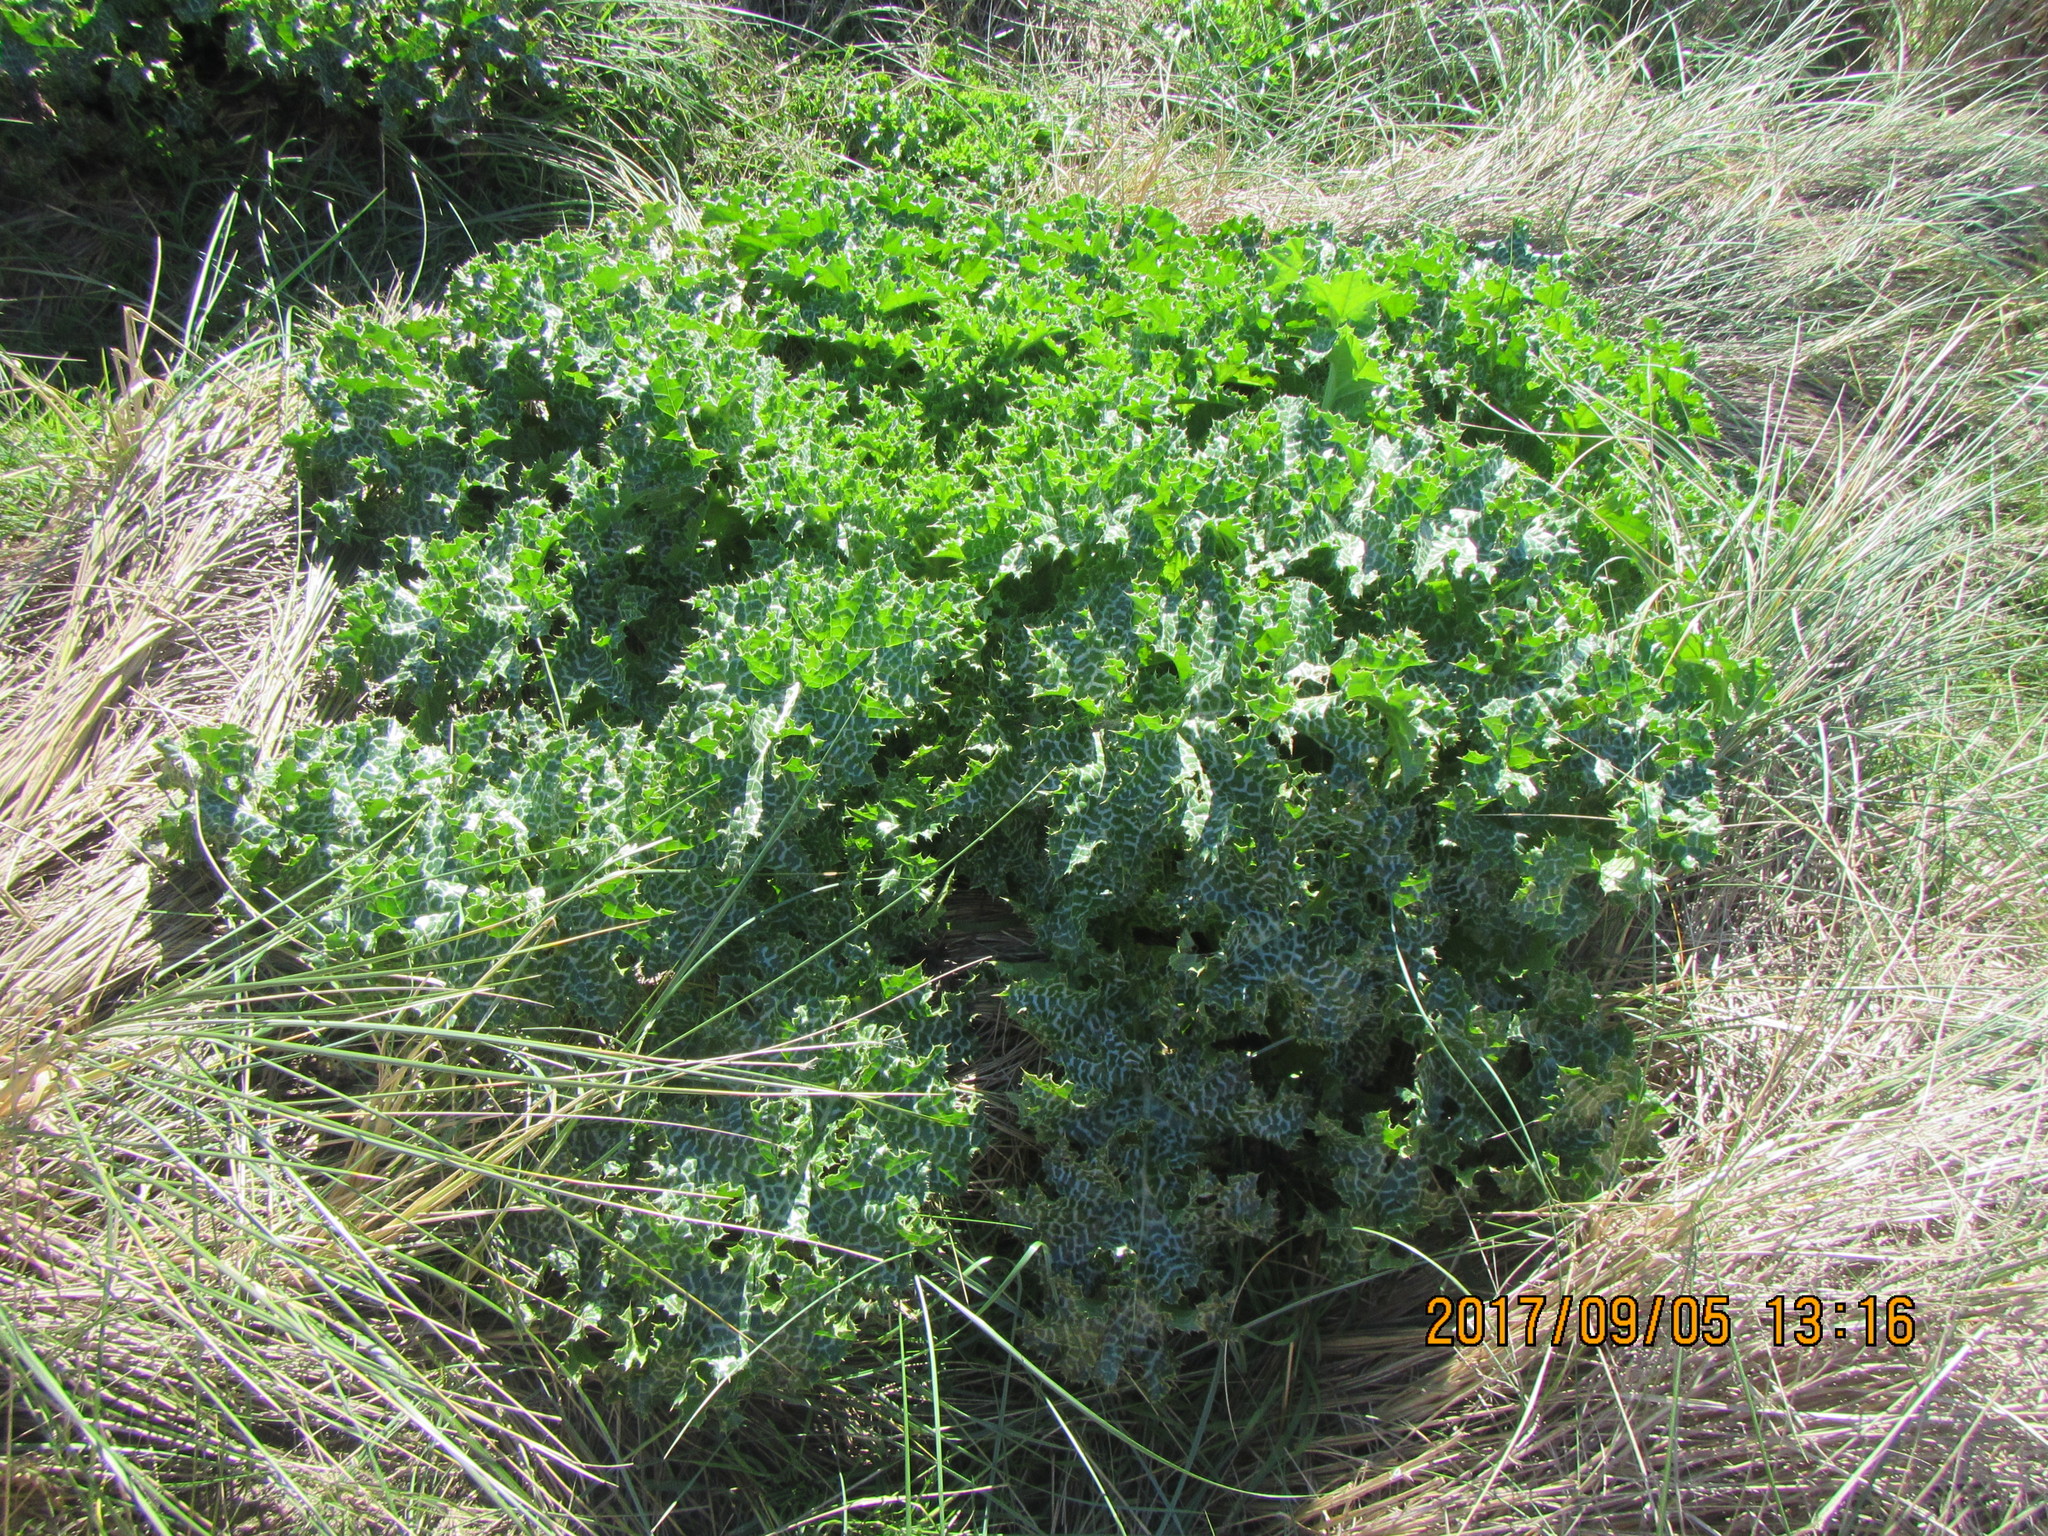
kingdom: Plantae
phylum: Tracheophyta
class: Magnoliopsida
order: Asterales
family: Asteraceae
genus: Silybum
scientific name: Silybum marianum
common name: Milk thistle
